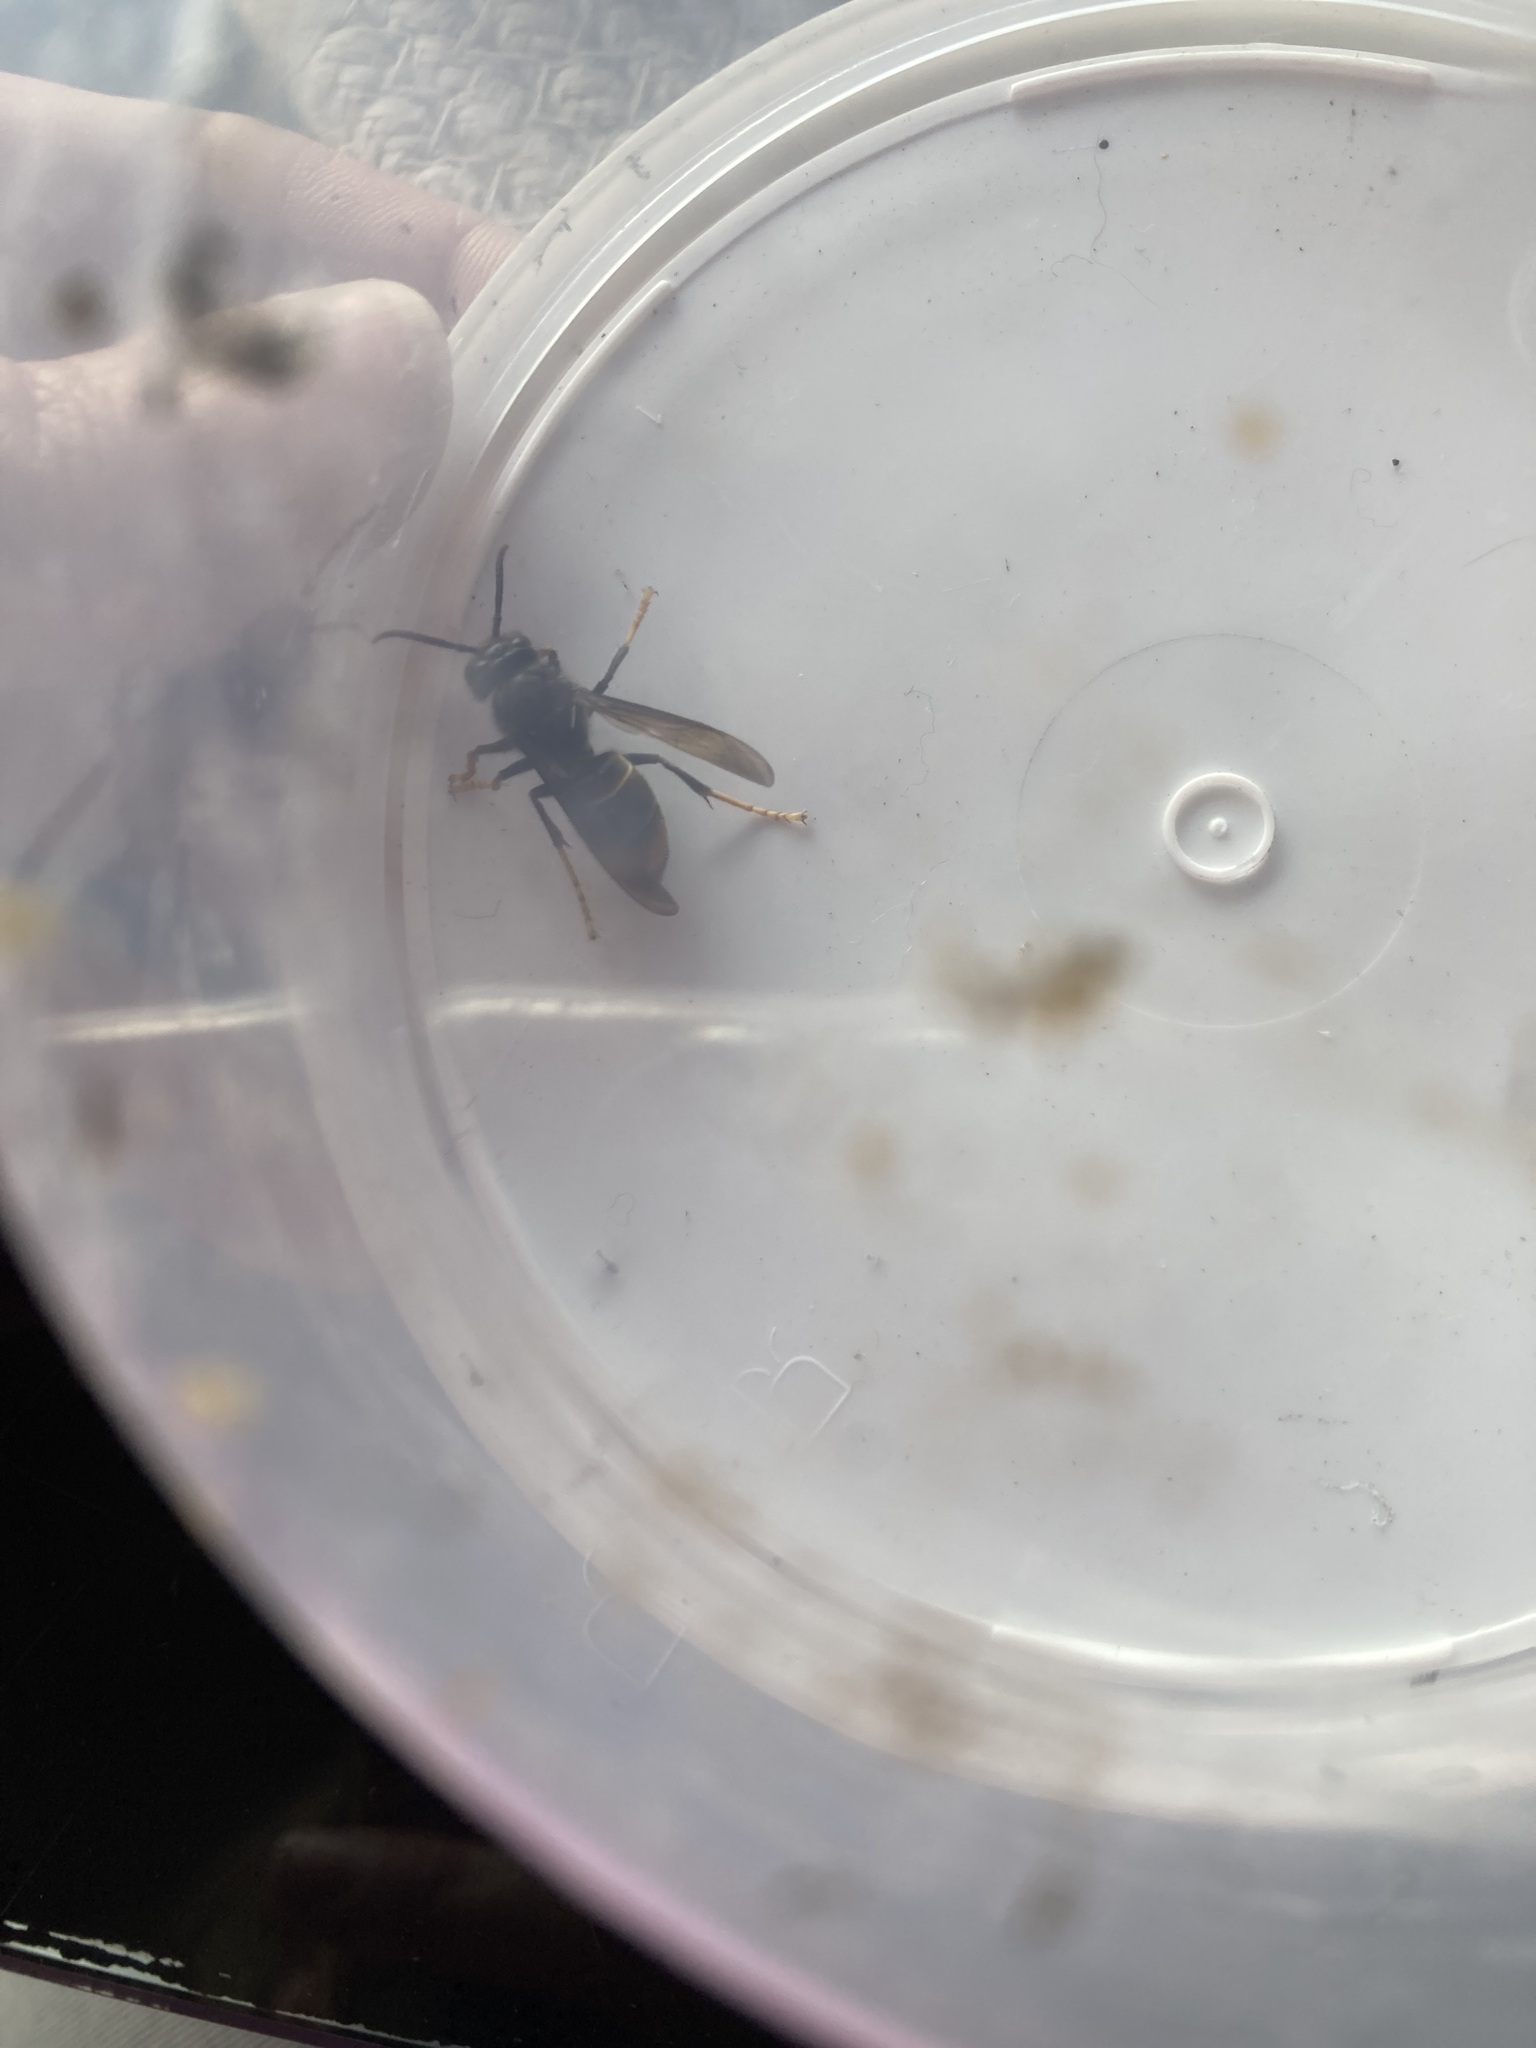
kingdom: Animalia
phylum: Arthropoda
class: Insecta
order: Hymenoptera
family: Vespidae
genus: Vespa
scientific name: Vespa velutina
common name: Asian hornet
